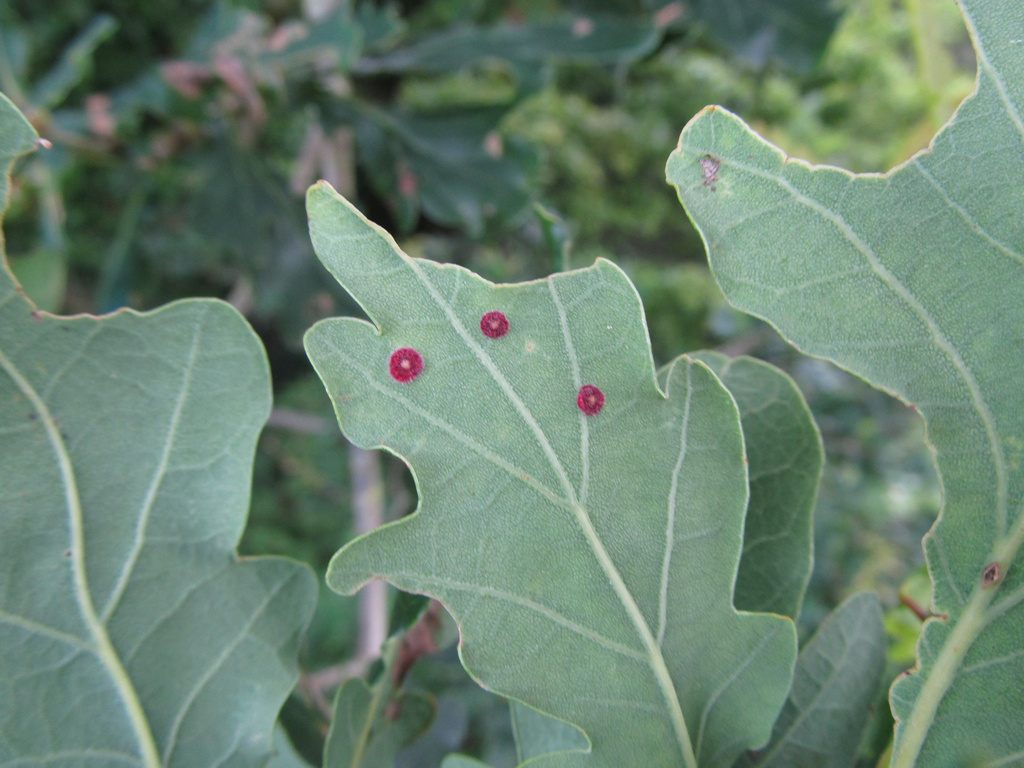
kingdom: Animalia
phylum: Arthropoda
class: Insecta
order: Hymenoptera
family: Cynipidae
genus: Neuroterus
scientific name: Neuroterus quercusbaccarum
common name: Common spangle gall
